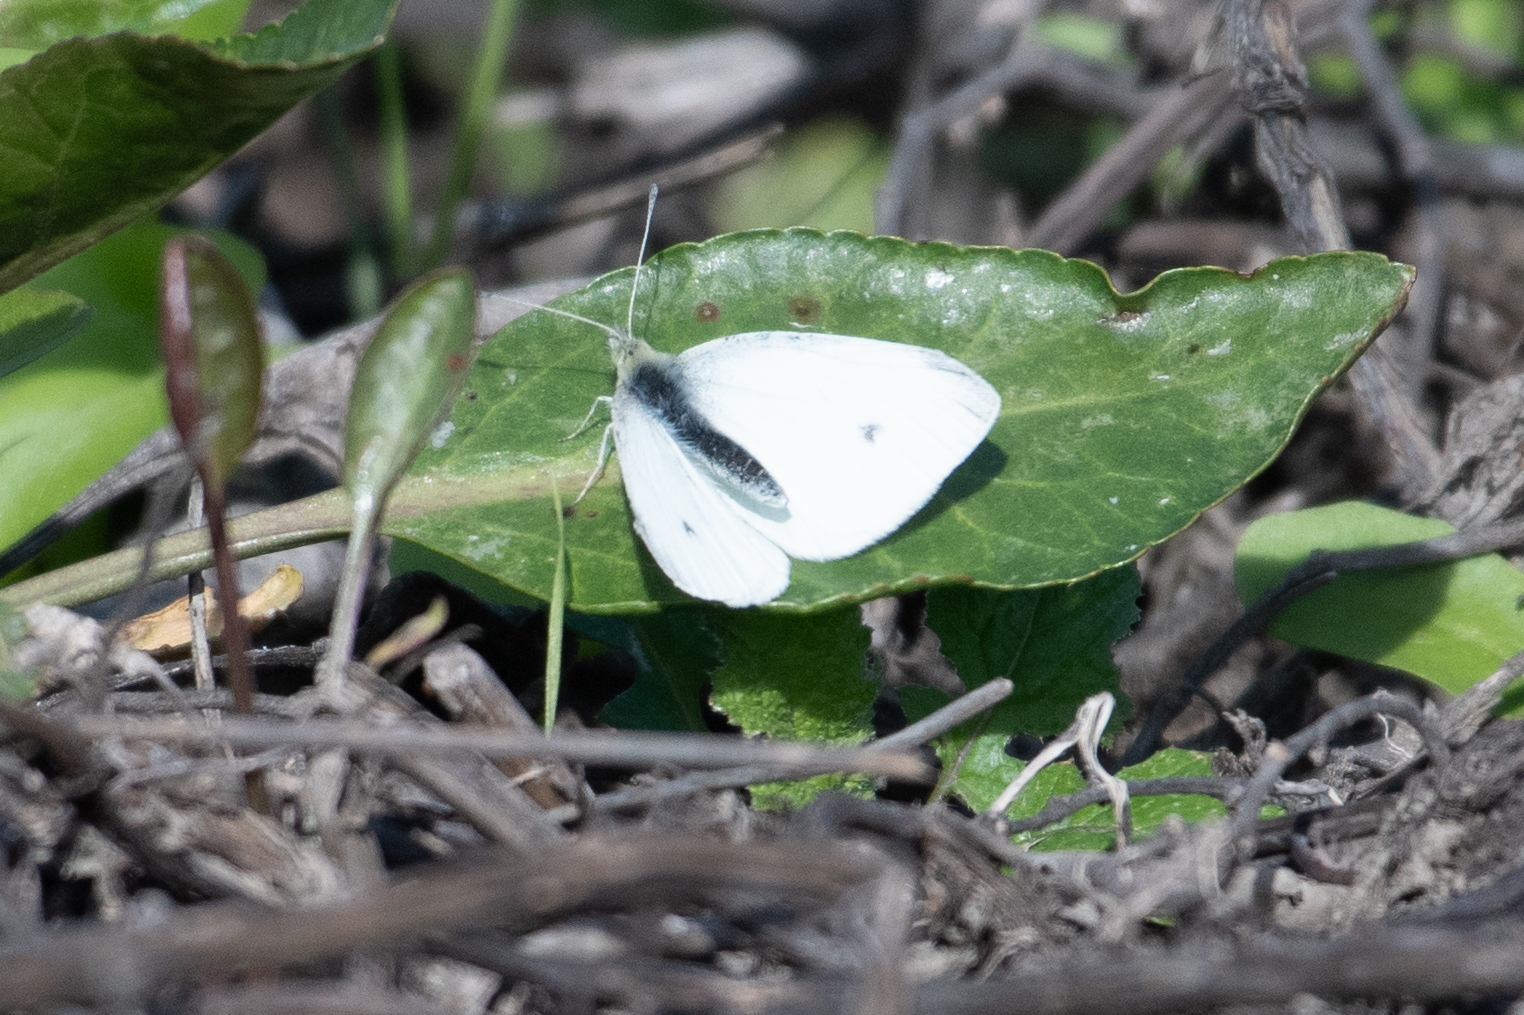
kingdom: Animalia
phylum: Arthropoda
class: Insecta
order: Lepidoptera
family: Pieridae
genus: Pieris
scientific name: Pieris rapae
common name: Small white
